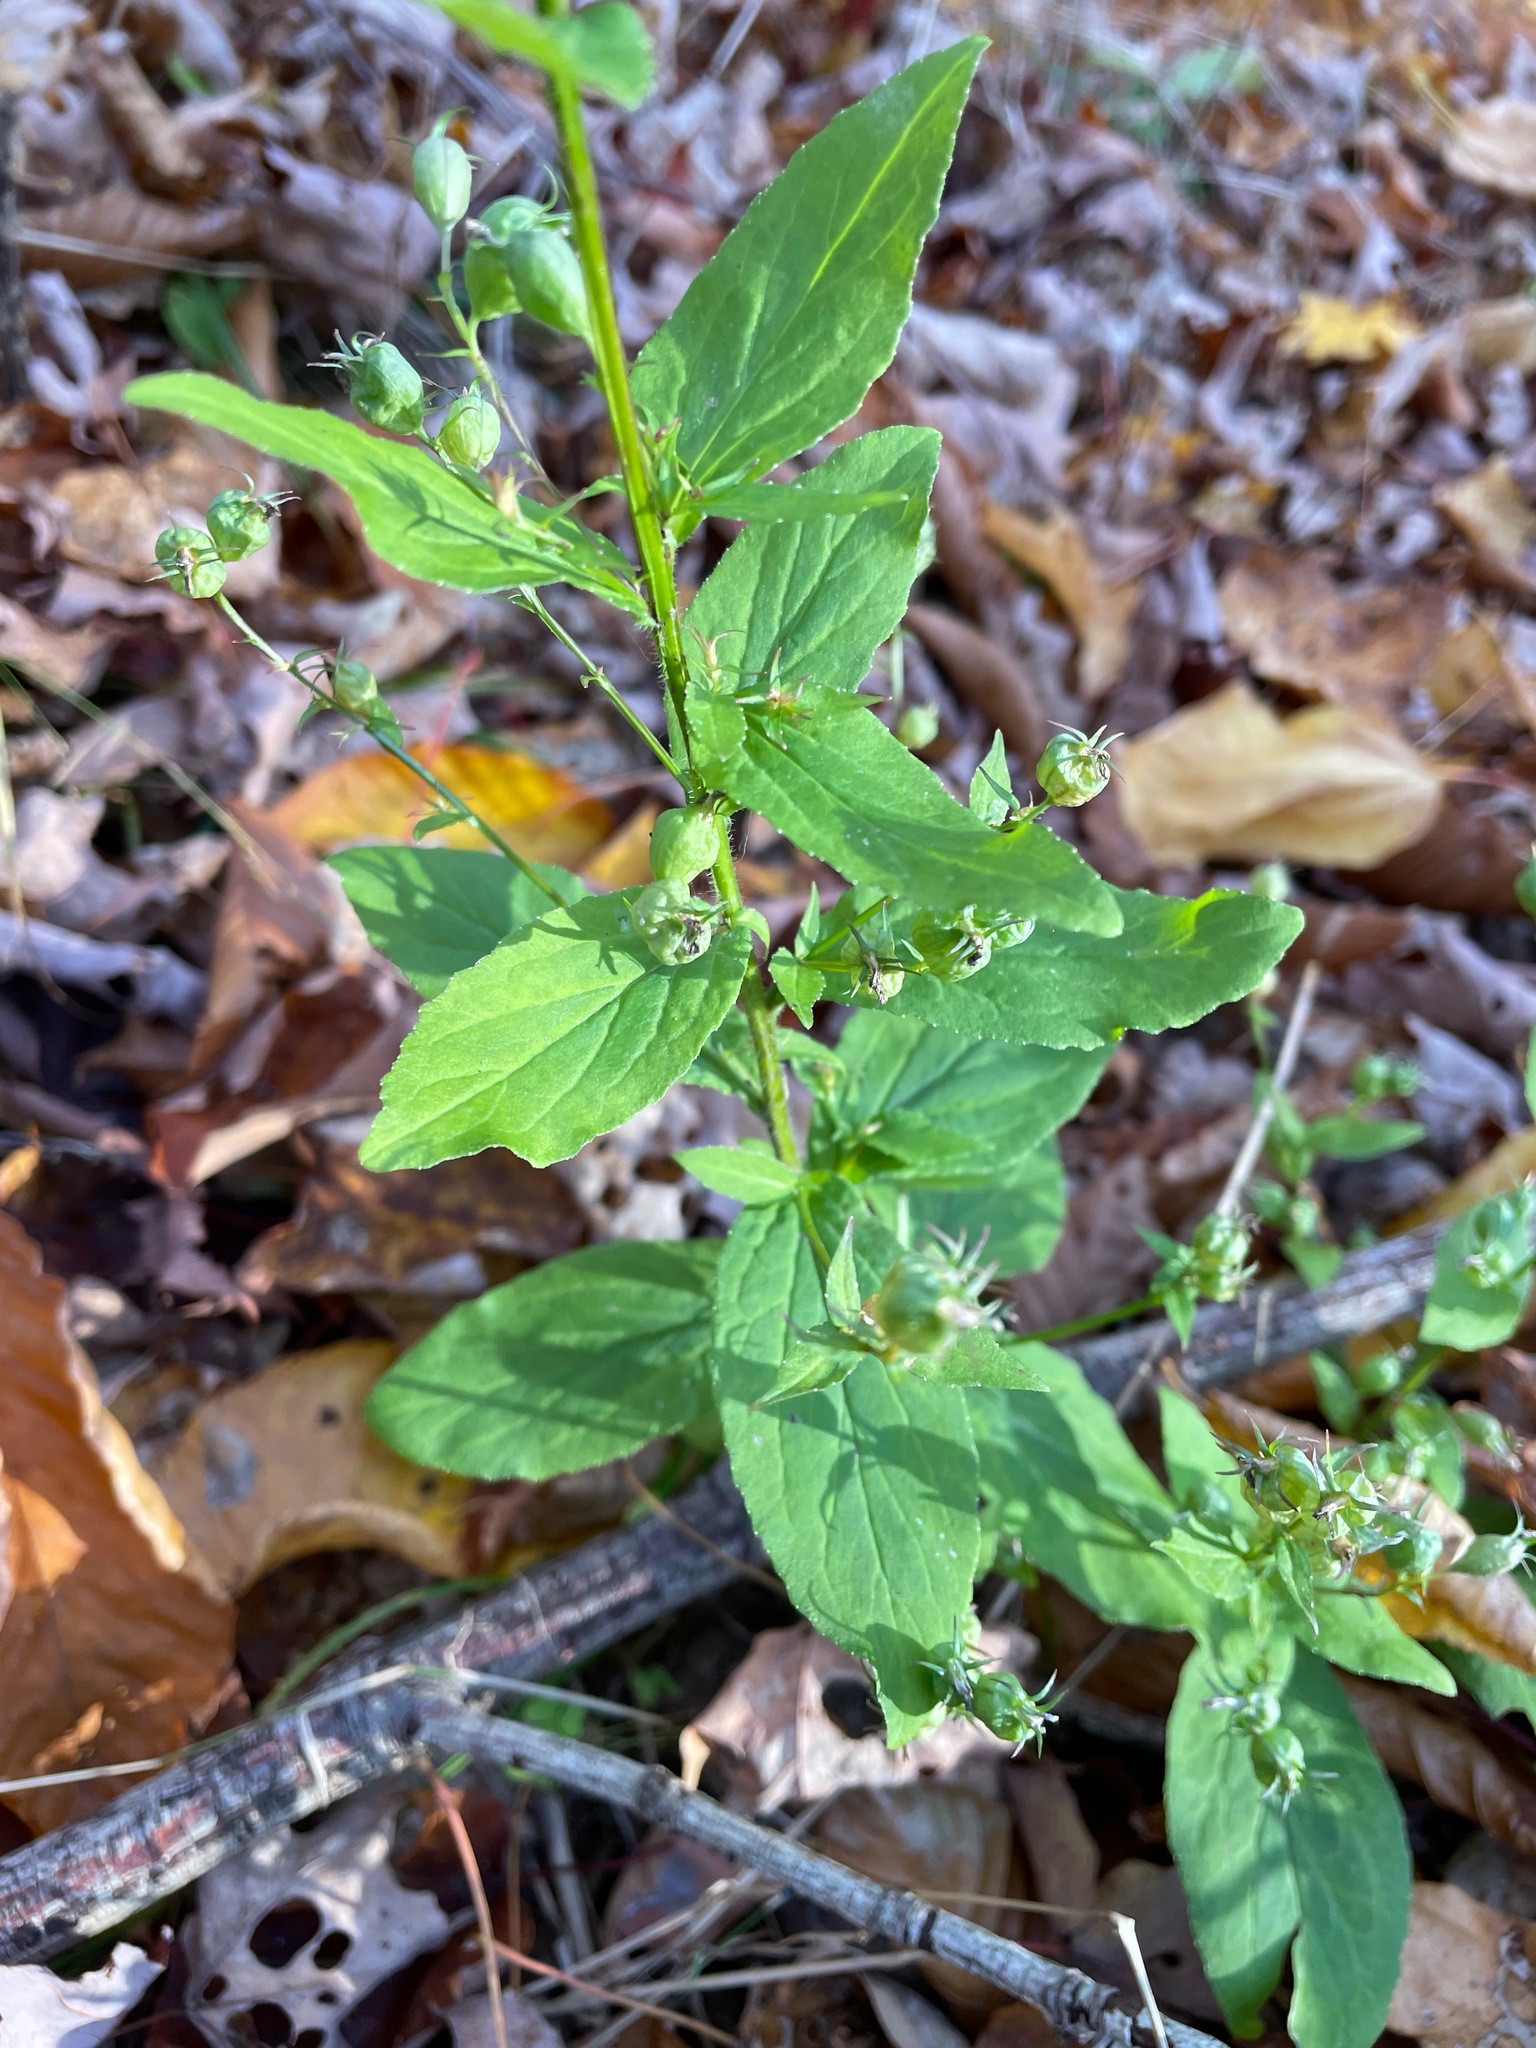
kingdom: Plantae
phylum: Tracheophyta
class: Magnoliopsida
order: Asterales
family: Campanulaceae
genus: Lobelia
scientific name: Lobelia inflata
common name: Indian tobacco
